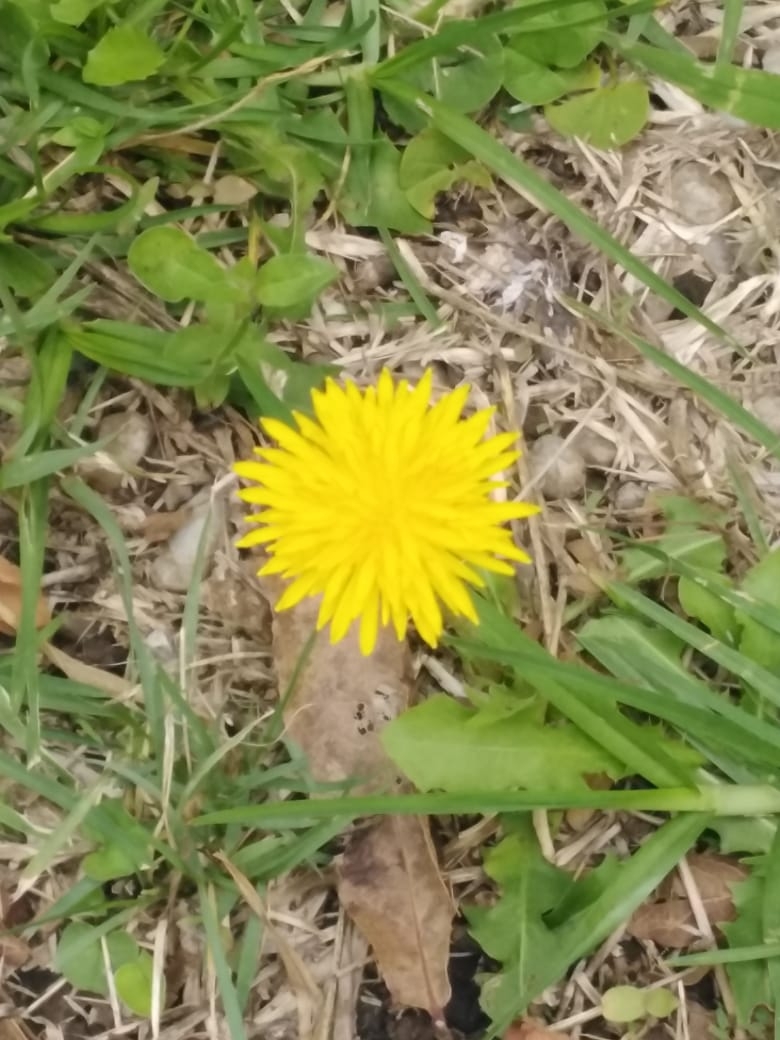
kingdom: Plantae
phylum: Tracheophyta
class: Magnoliopsida
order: Asterales
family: Asteraceae
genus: Taraxacum
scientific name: Taraxacum officinale
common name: Common dandelion
